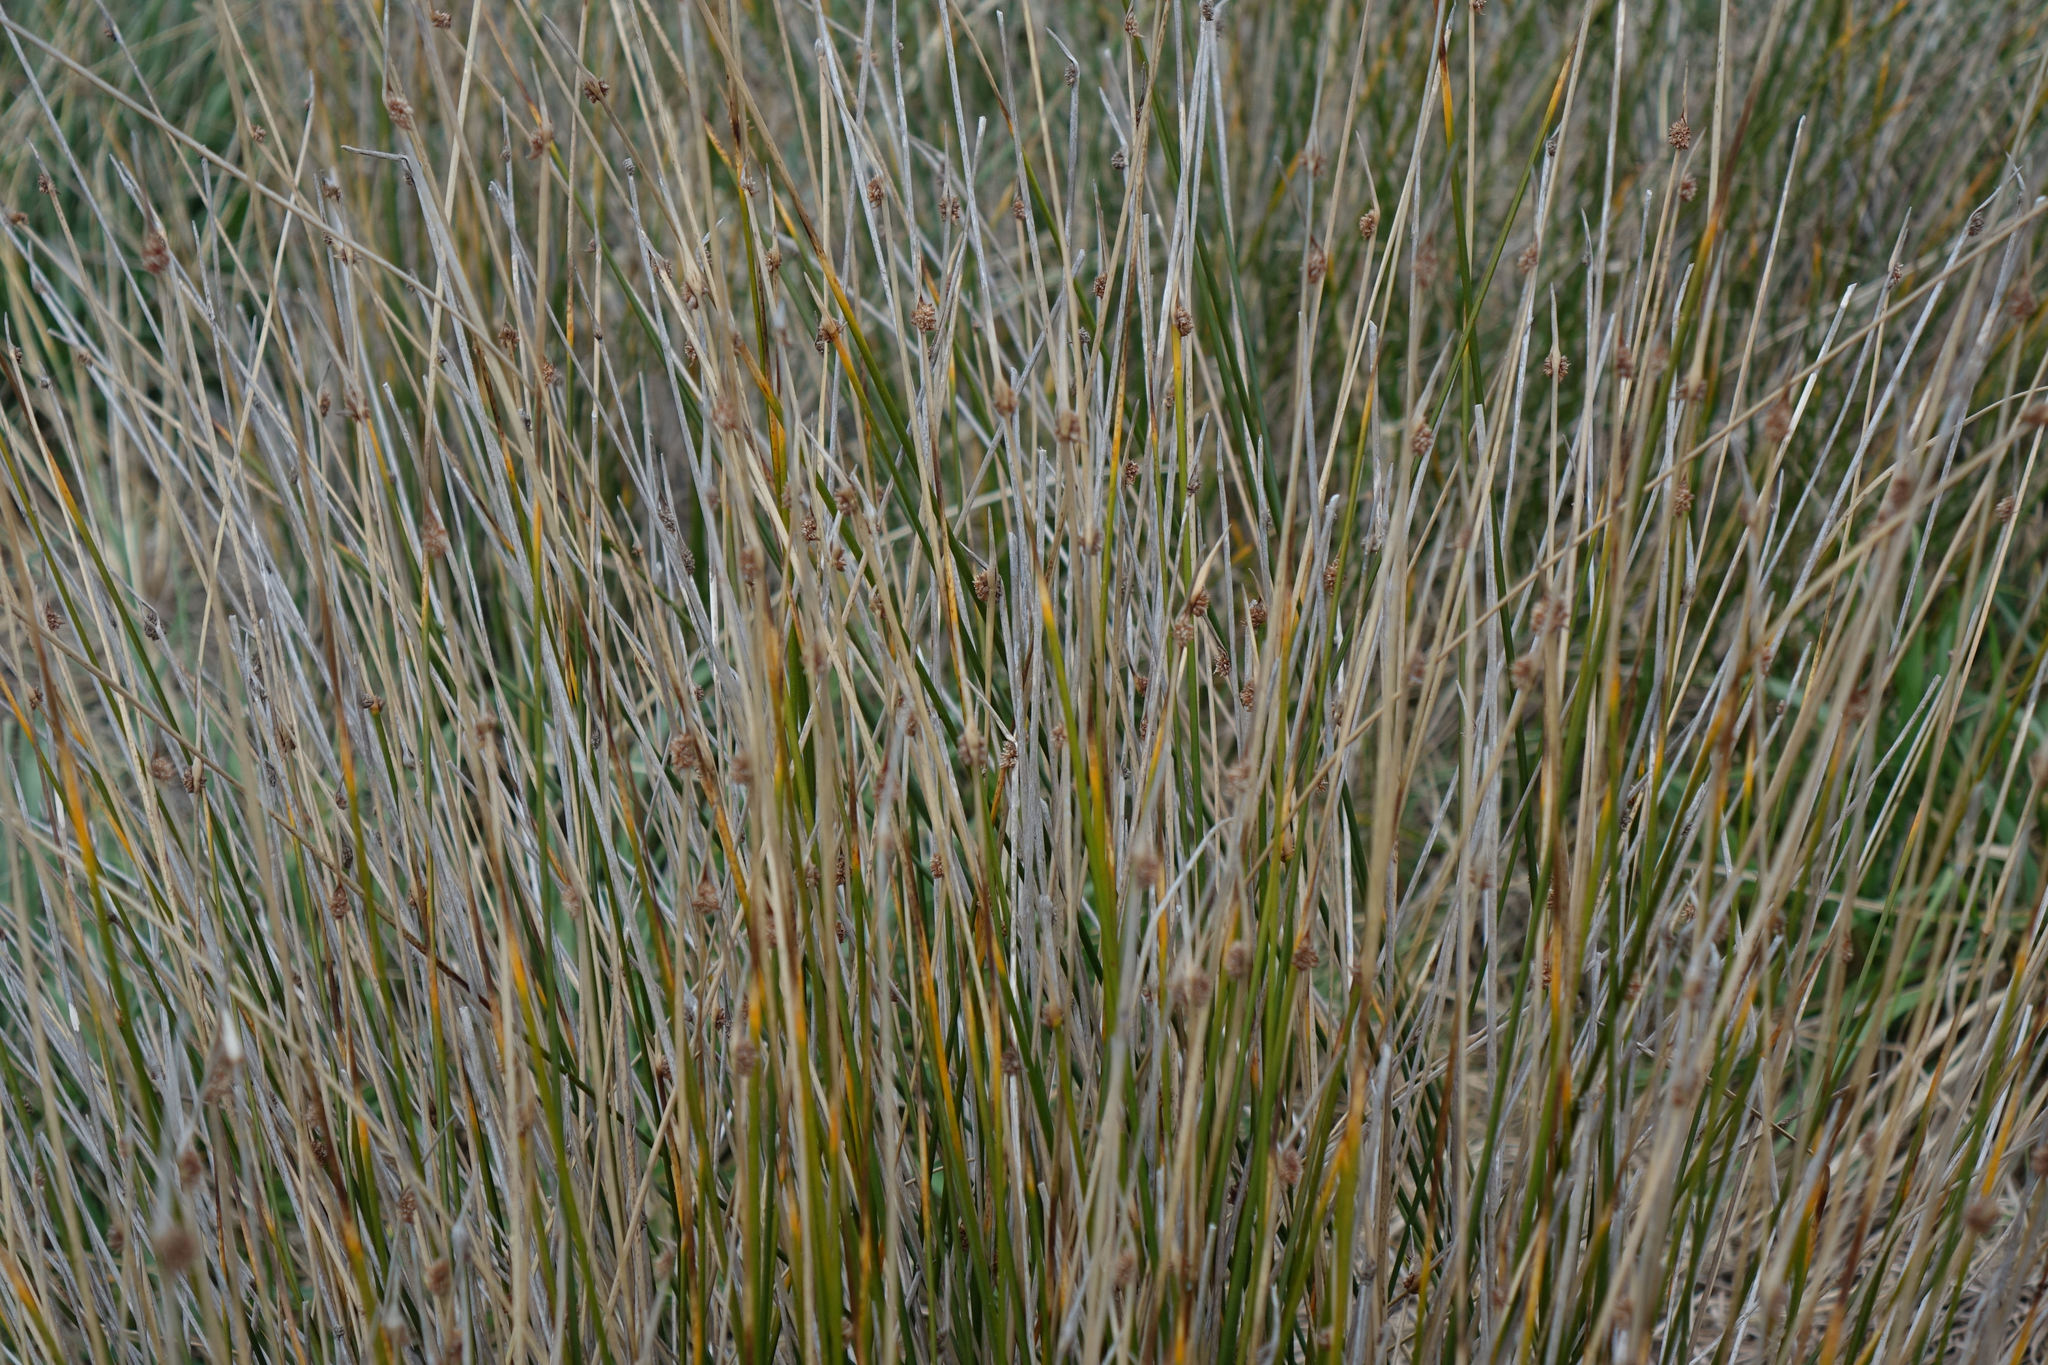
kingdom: Plantae
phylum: Tracheophyta
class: Liliopsida
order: Poales
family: Cyperaceae
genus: Ficinia
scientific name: Ficinia nodosa
